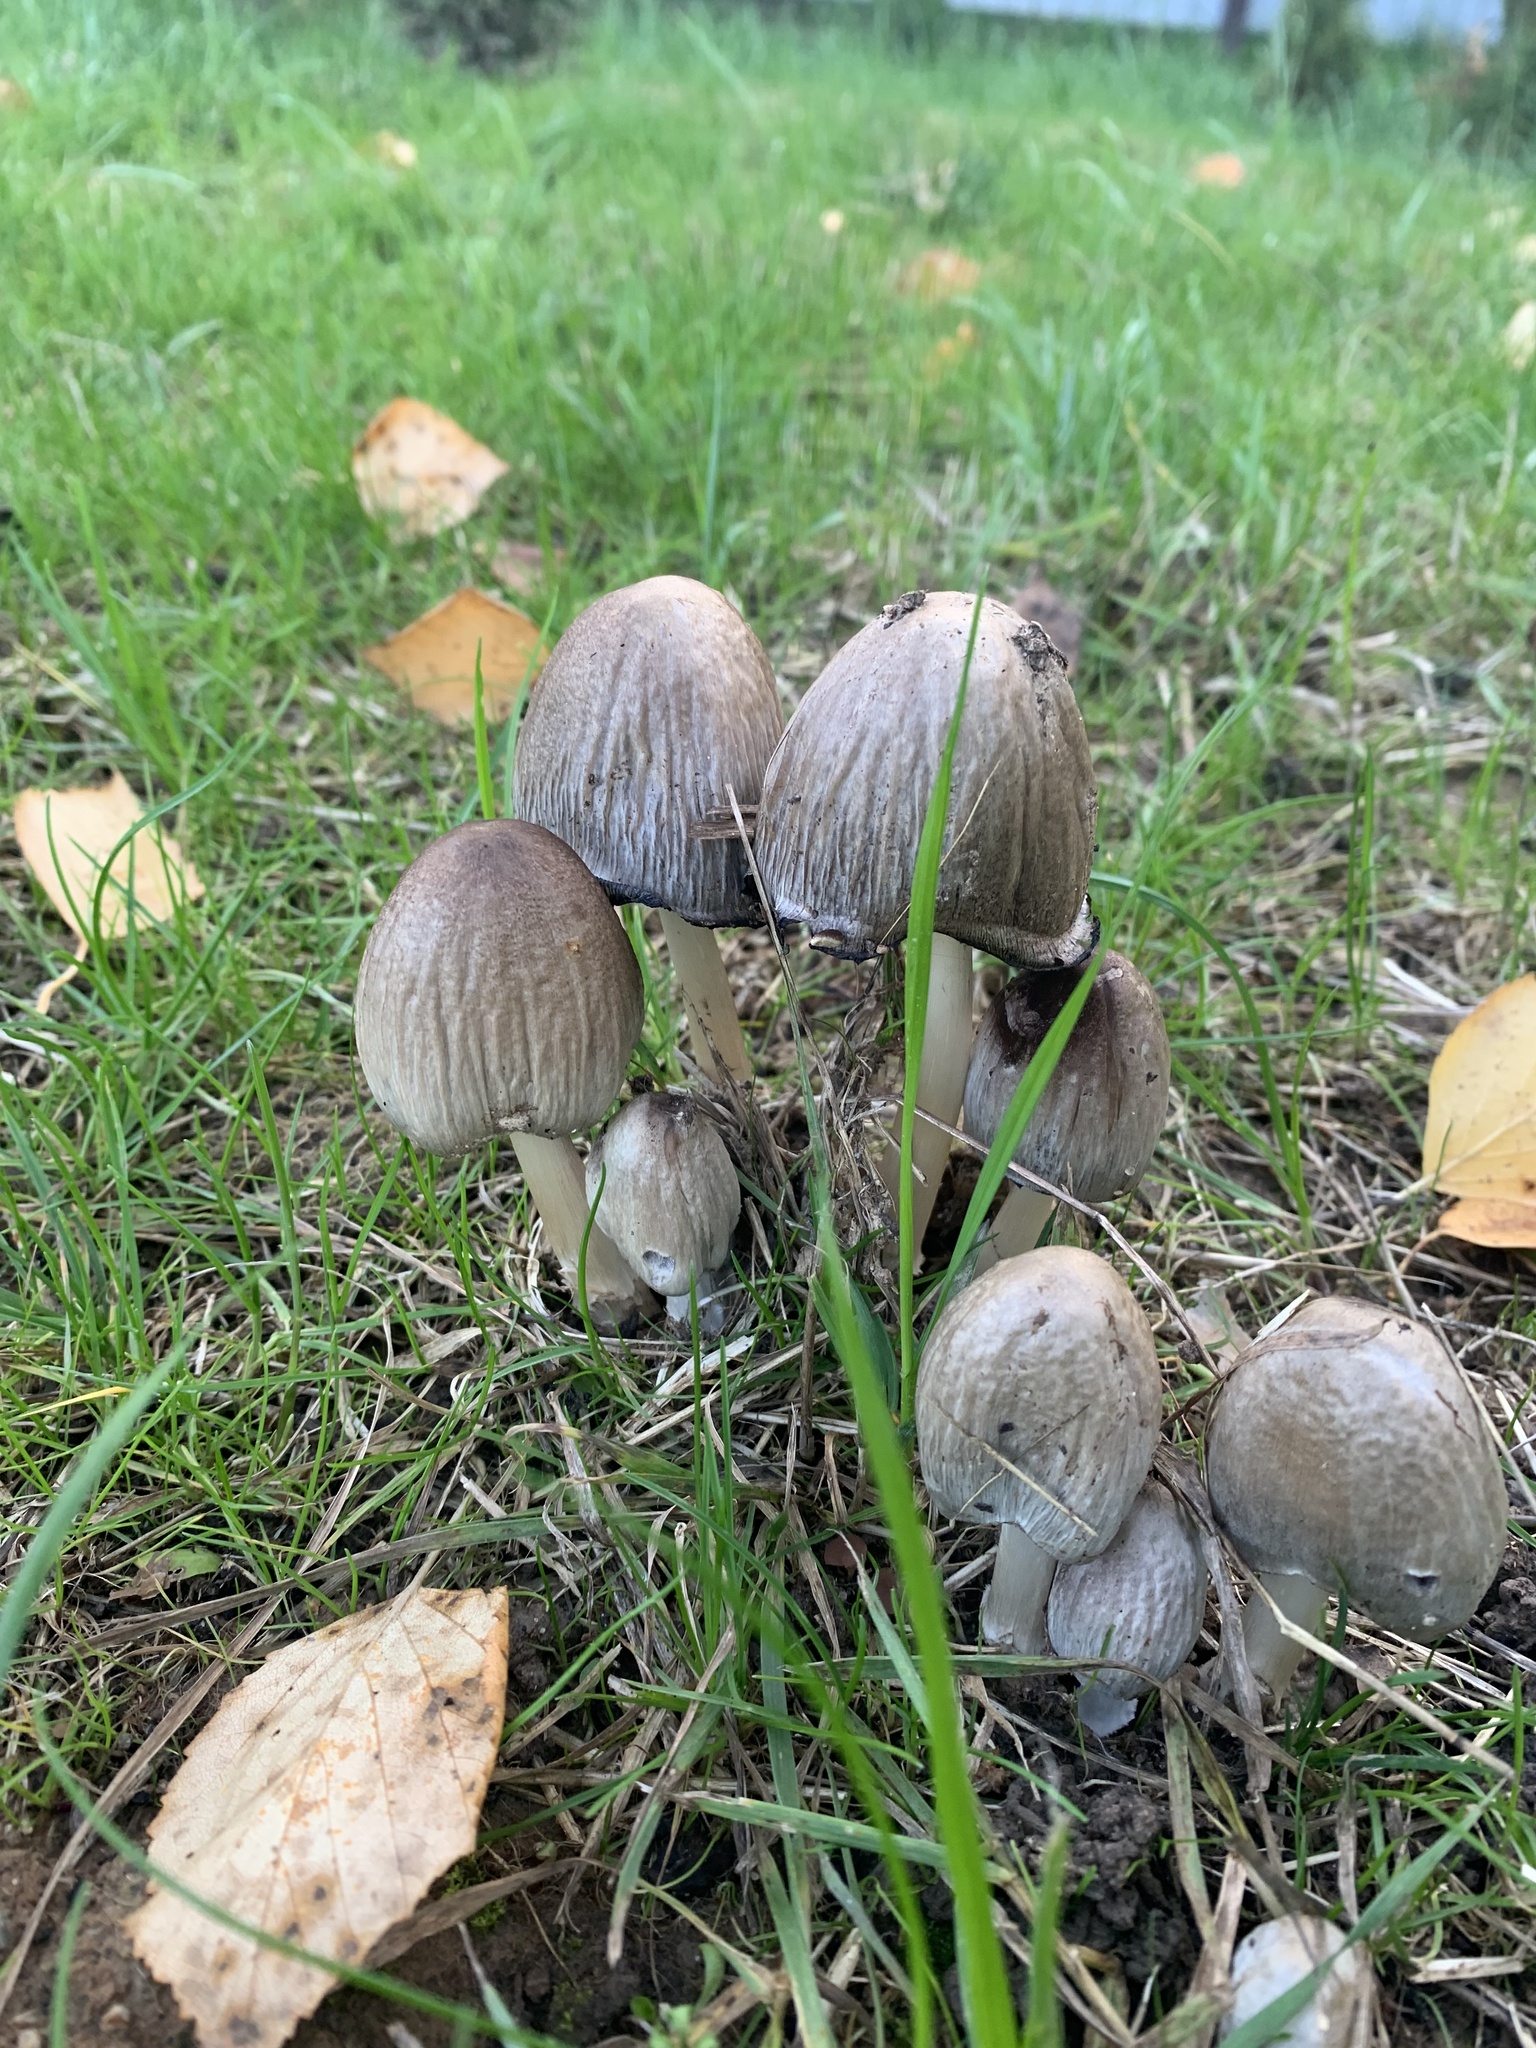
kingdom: Fungi
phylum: Basidiomycota
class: Agaricomycetes
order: Agaricales
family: Psathyrellaceae
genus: Coprinopsis
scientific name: Coprinopsis atramentaria
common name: Common ink-cap
